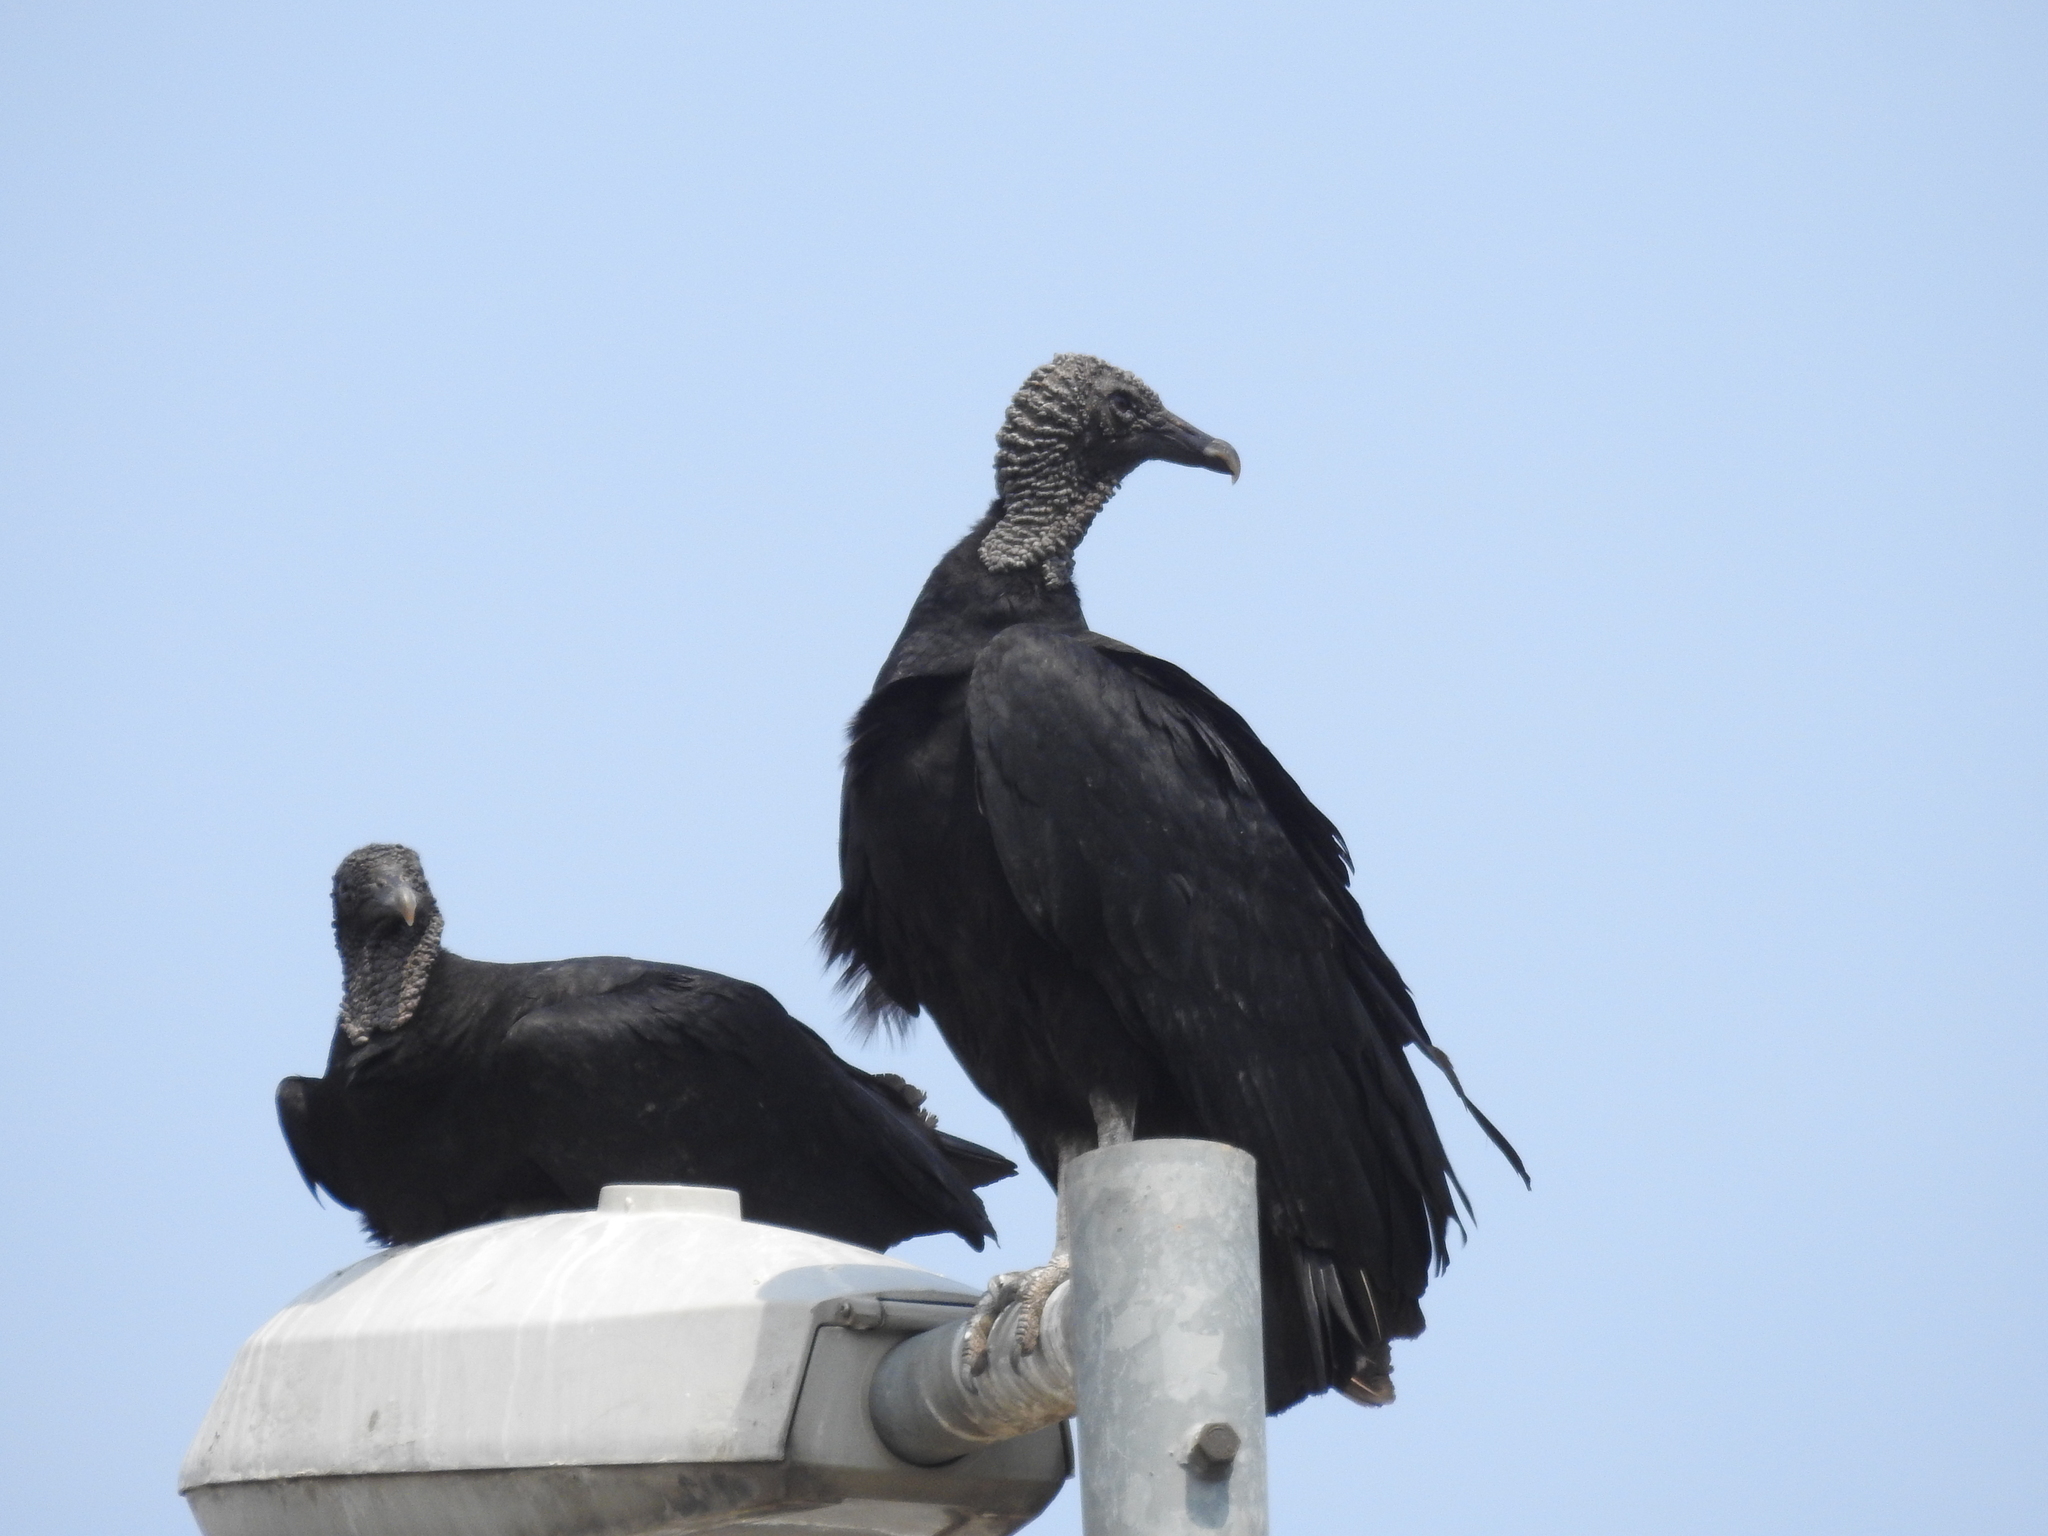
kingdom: Animalia
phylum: Chordata
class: Aves
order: Accipitriformes
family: Cathartidae
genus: Coragyps
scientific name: Coragyps atratus
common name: Black vulture
